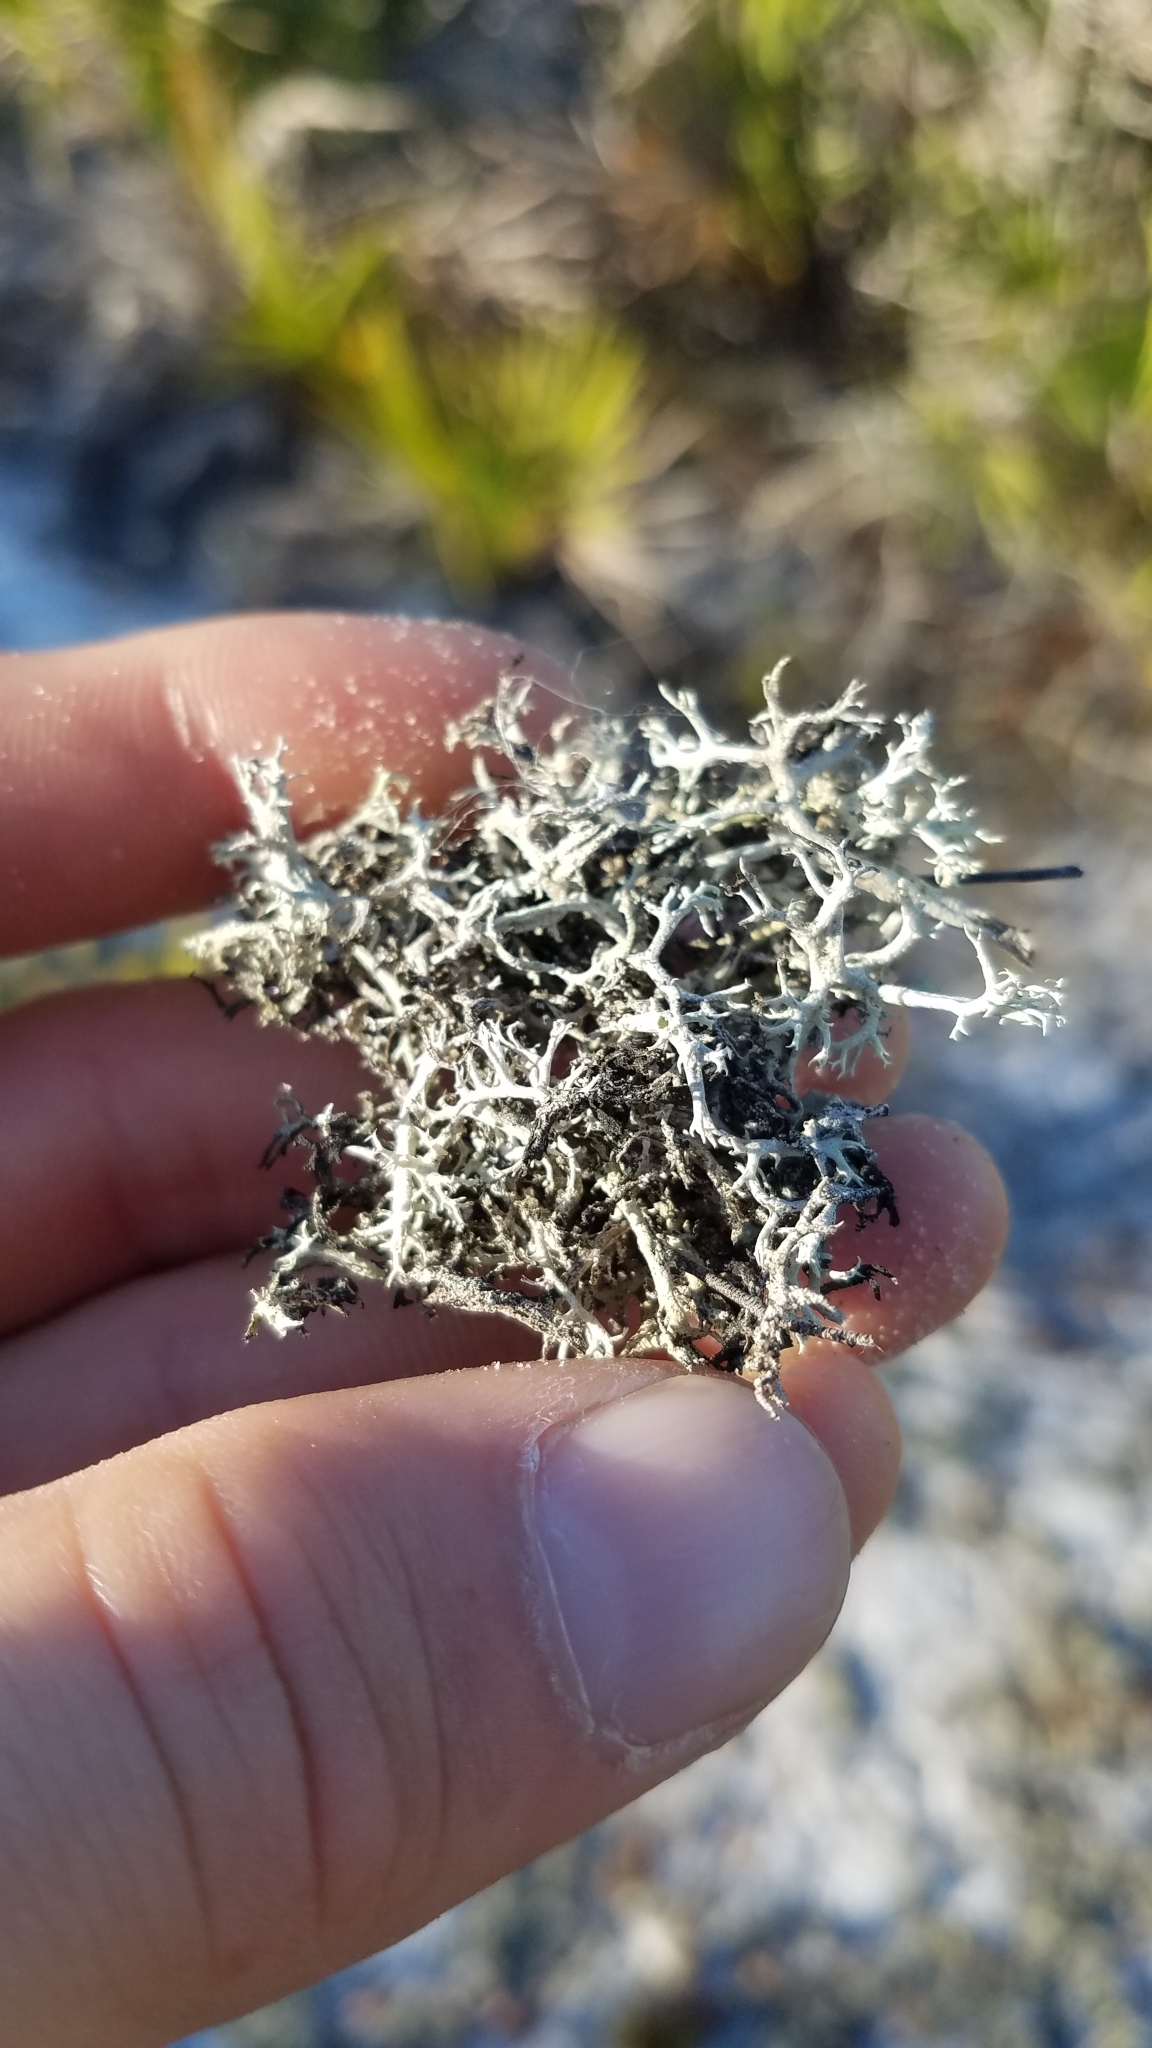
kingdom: Fungi
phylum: Ascomycota
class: Lecanoromycetes
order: Lecanorales
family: Cladoniaceae
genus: Cladonia
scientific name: Cladonia pachycladodes
